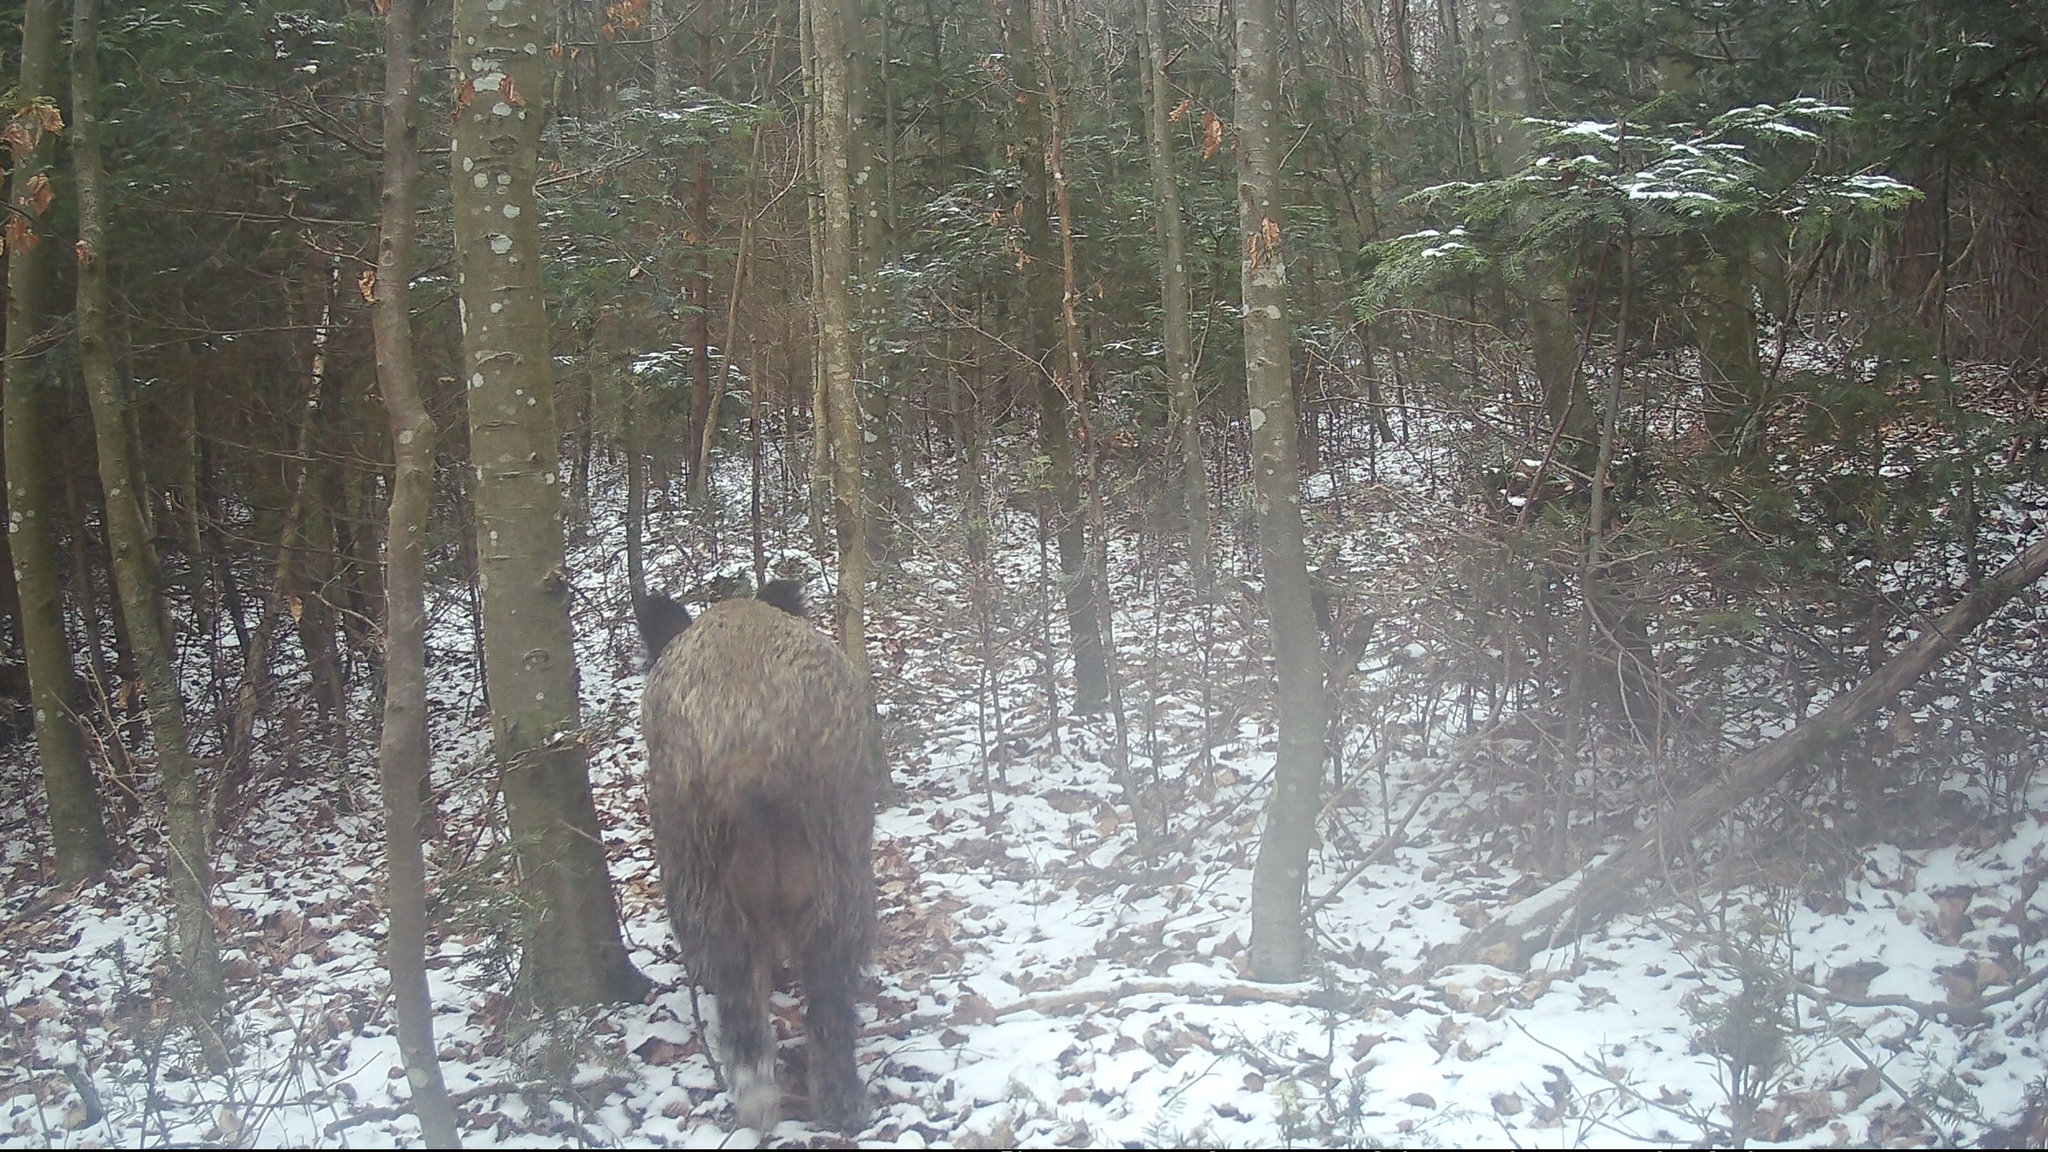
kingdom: Animalia
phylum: Chordata
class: Mammalia
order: Artiodactyla
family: Suidae
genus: Sus
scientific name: Sus scrofa
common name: Wild boar
